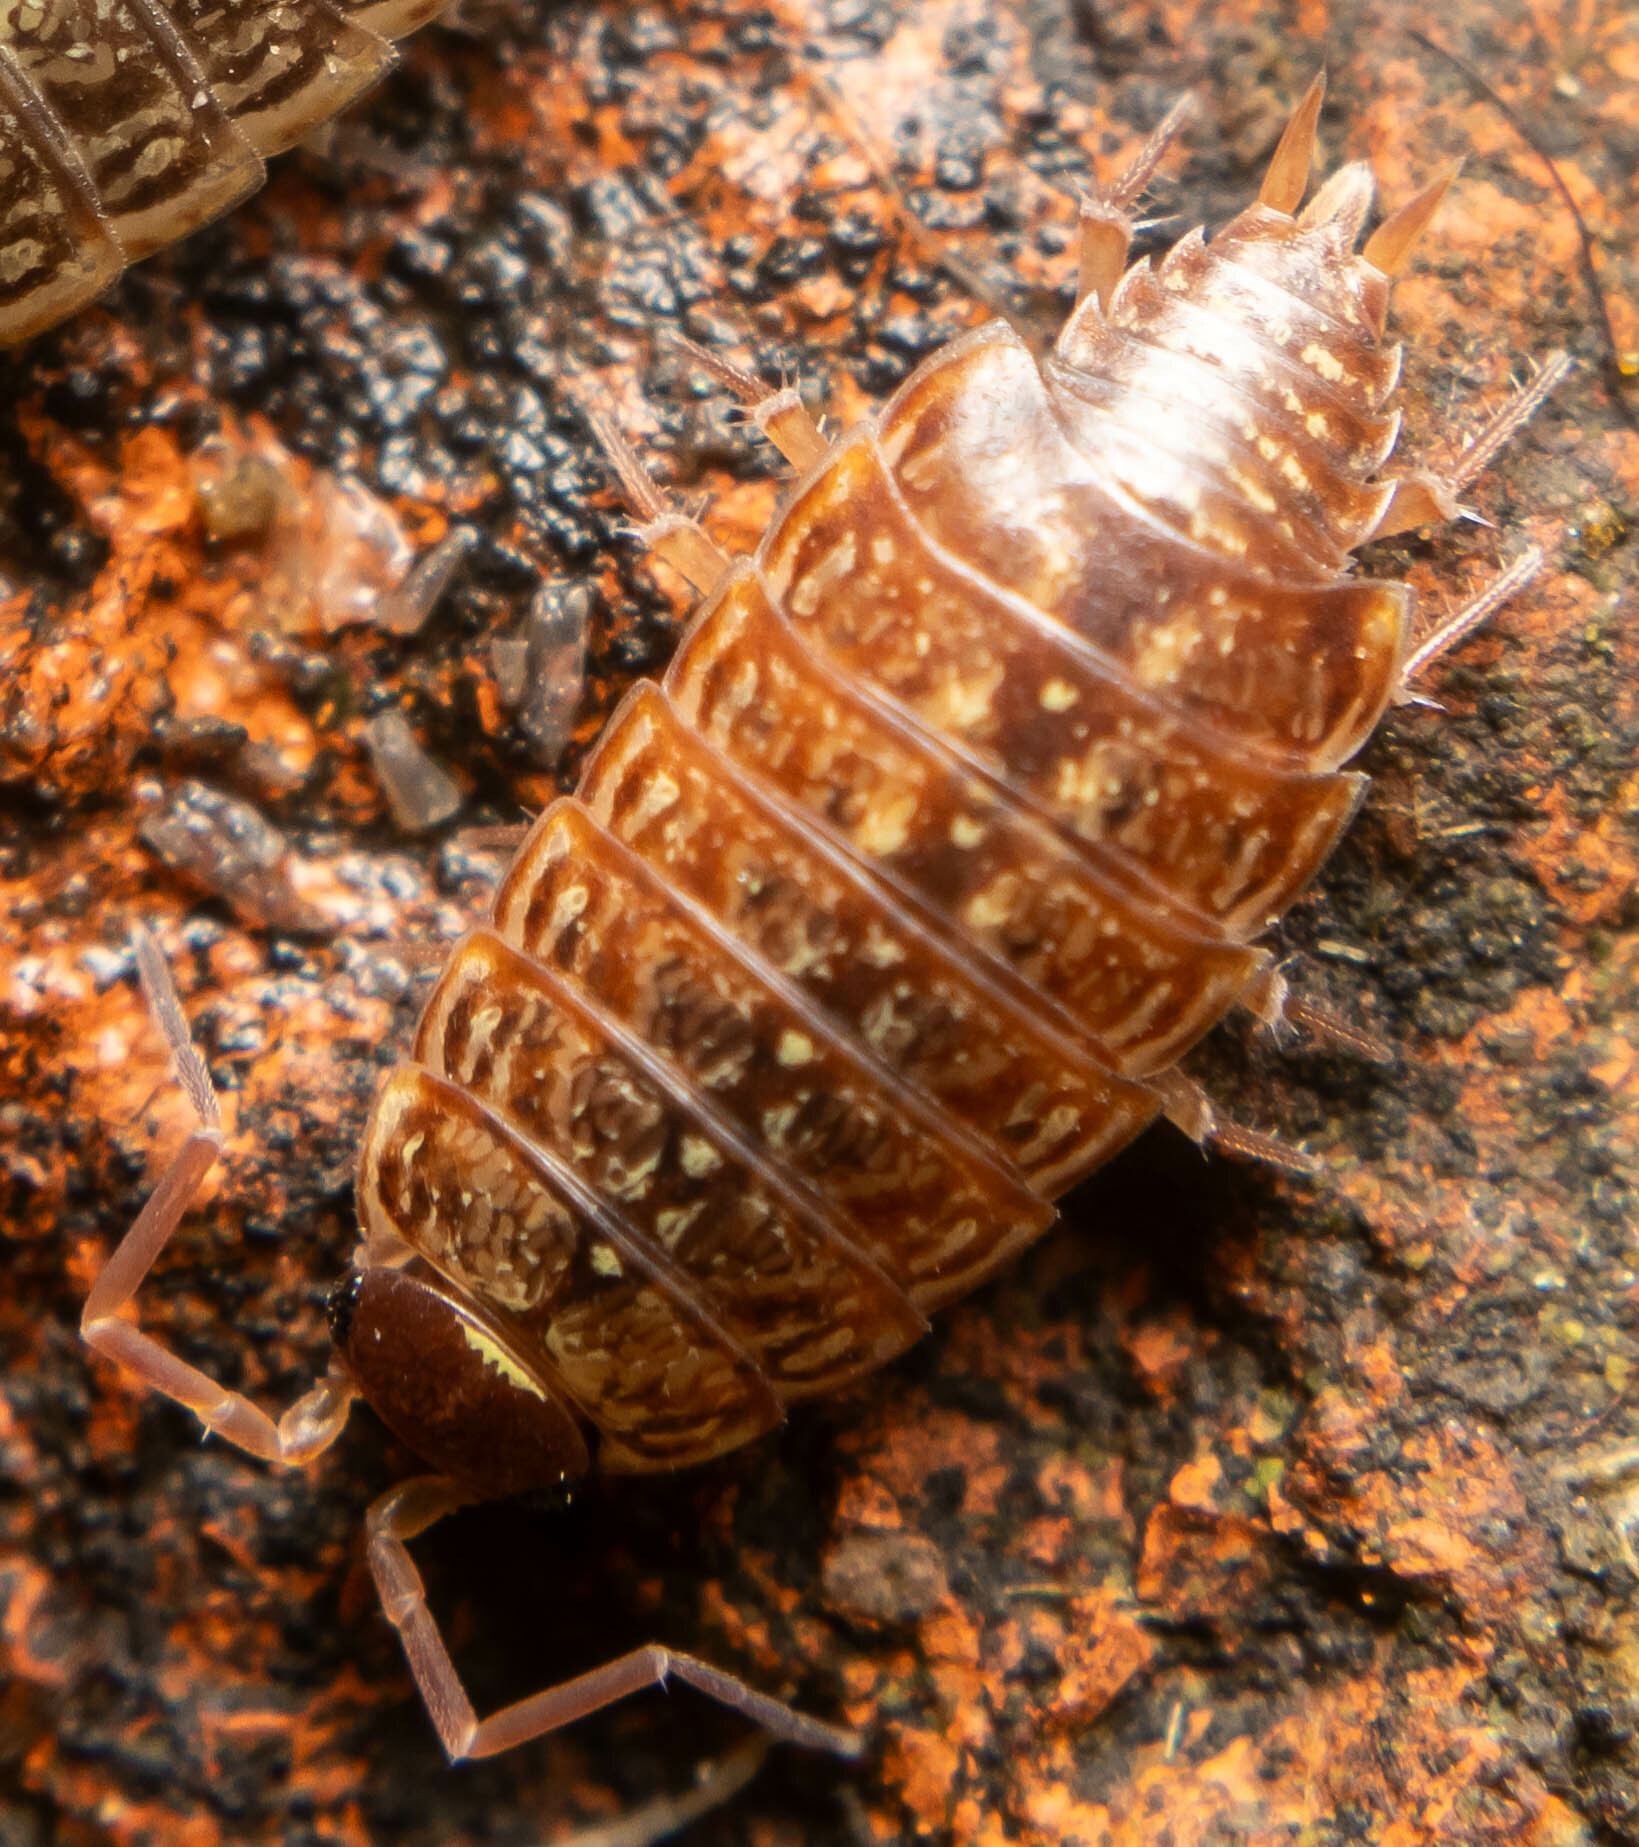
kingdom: Animalia
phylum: Arthropoda
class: Malacostraca
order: Isopoda
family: Philosciidae
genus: Philoscia
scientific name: Philoscia muscorum
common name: Common striped woodlouse
